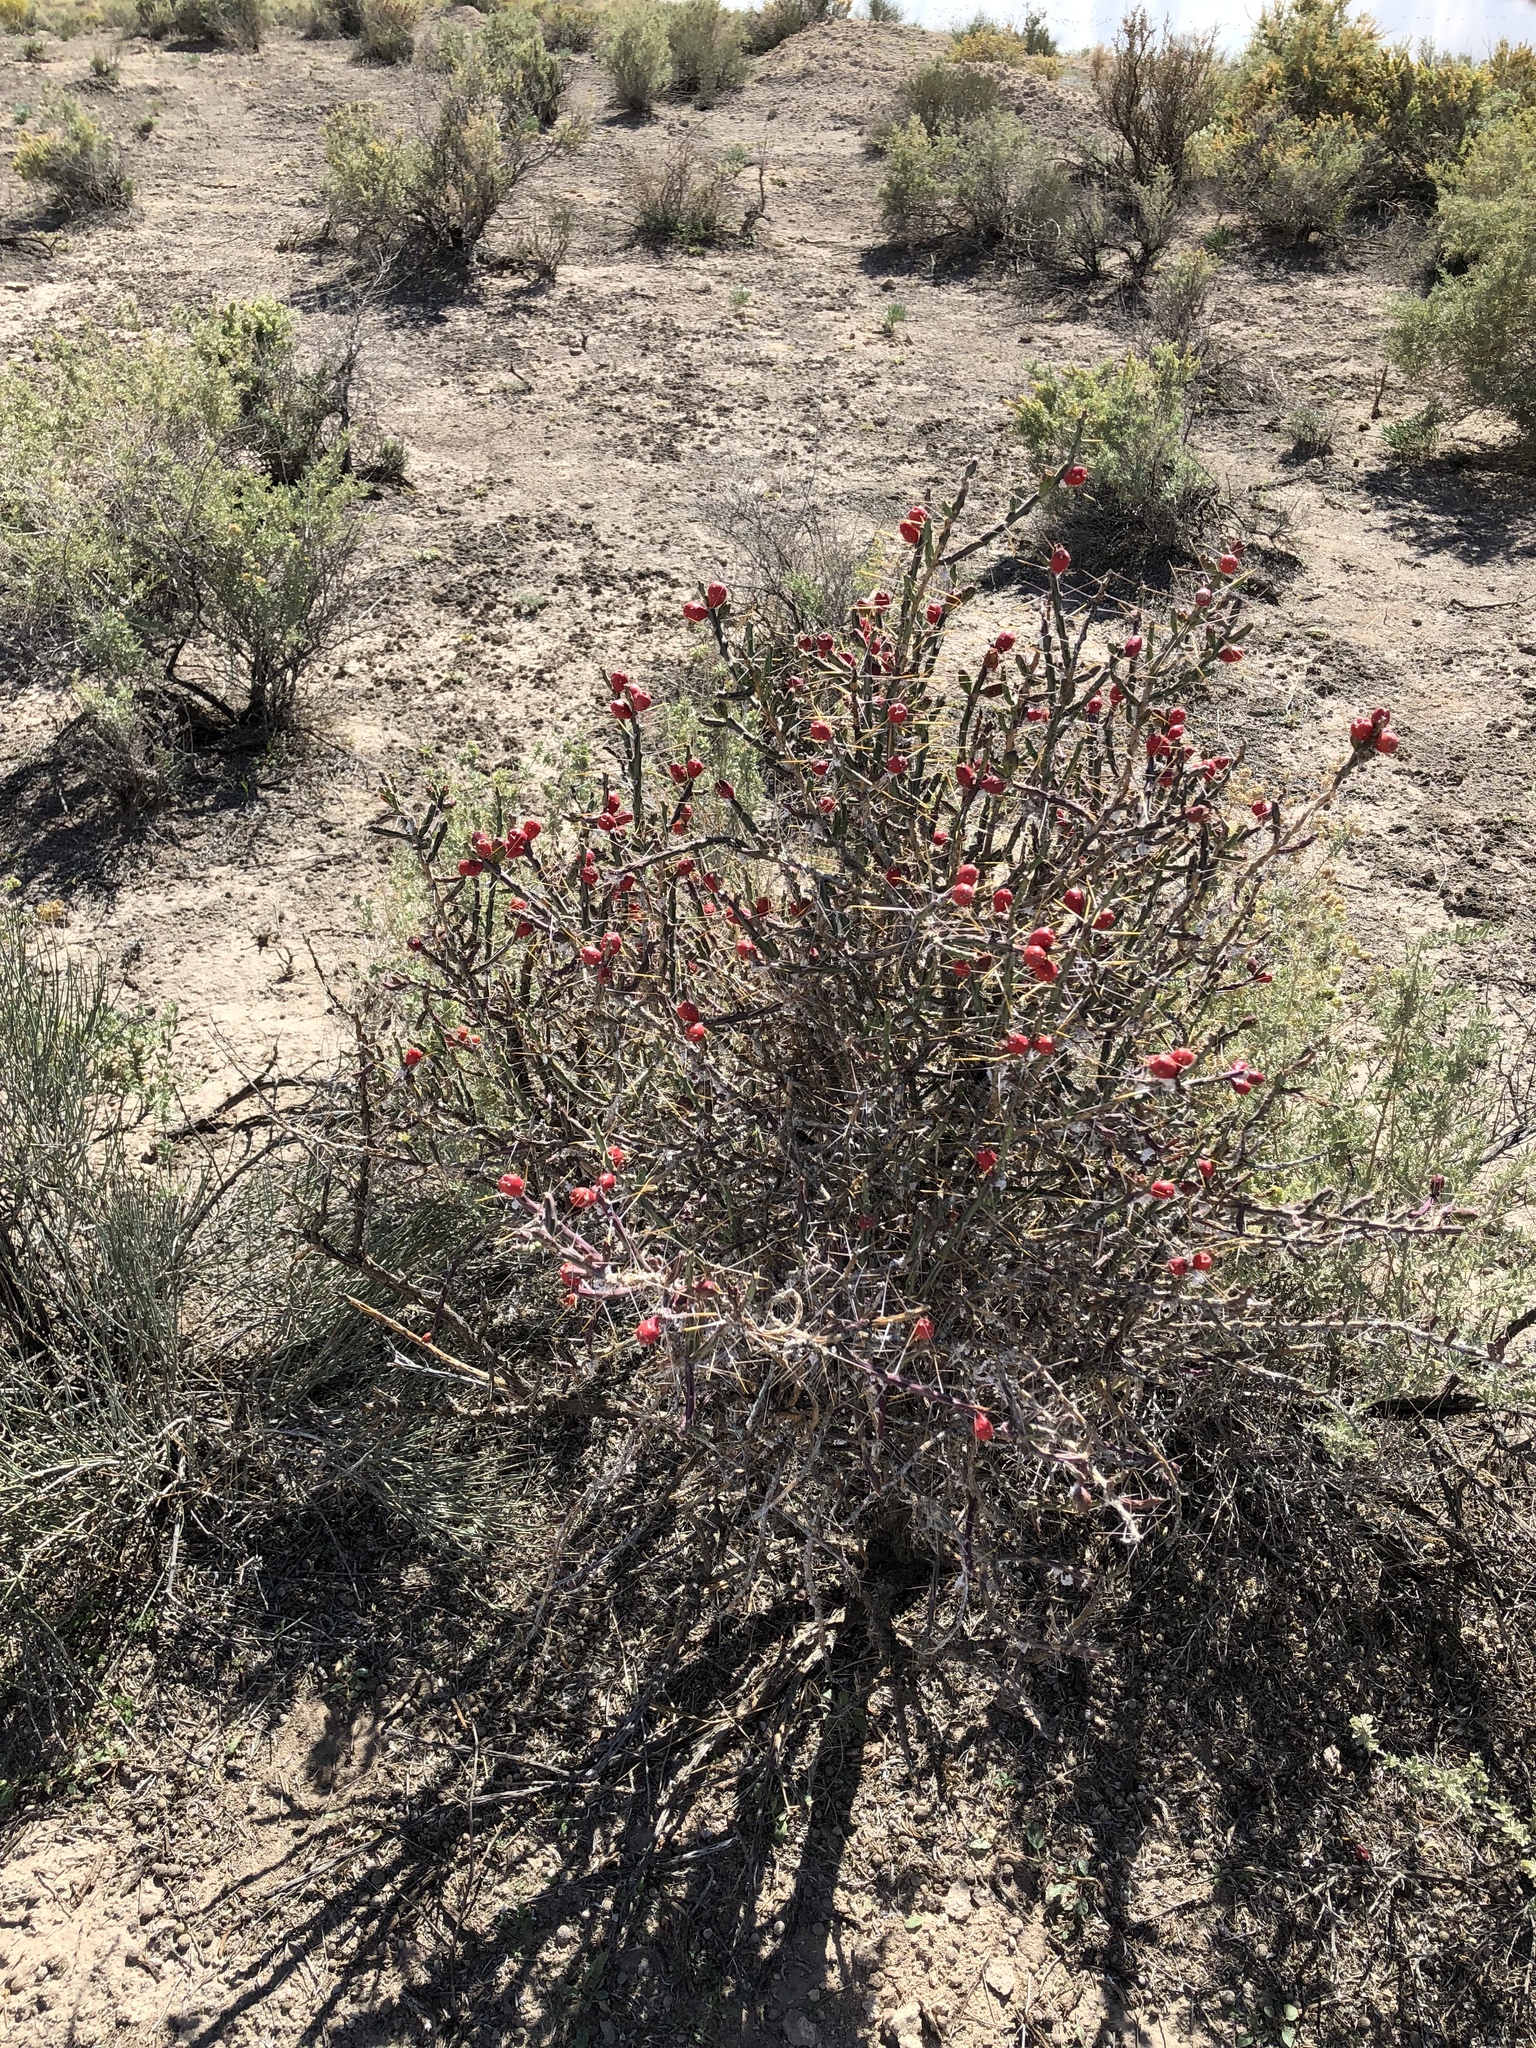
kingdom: Plantae
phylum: Tracheophyta
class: Magnoliopsida
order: Caryophyllales
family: Cactaceae
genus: Cylindropuntia
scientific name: Cylindropuntia leptocaulis
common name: Christmas cactus
